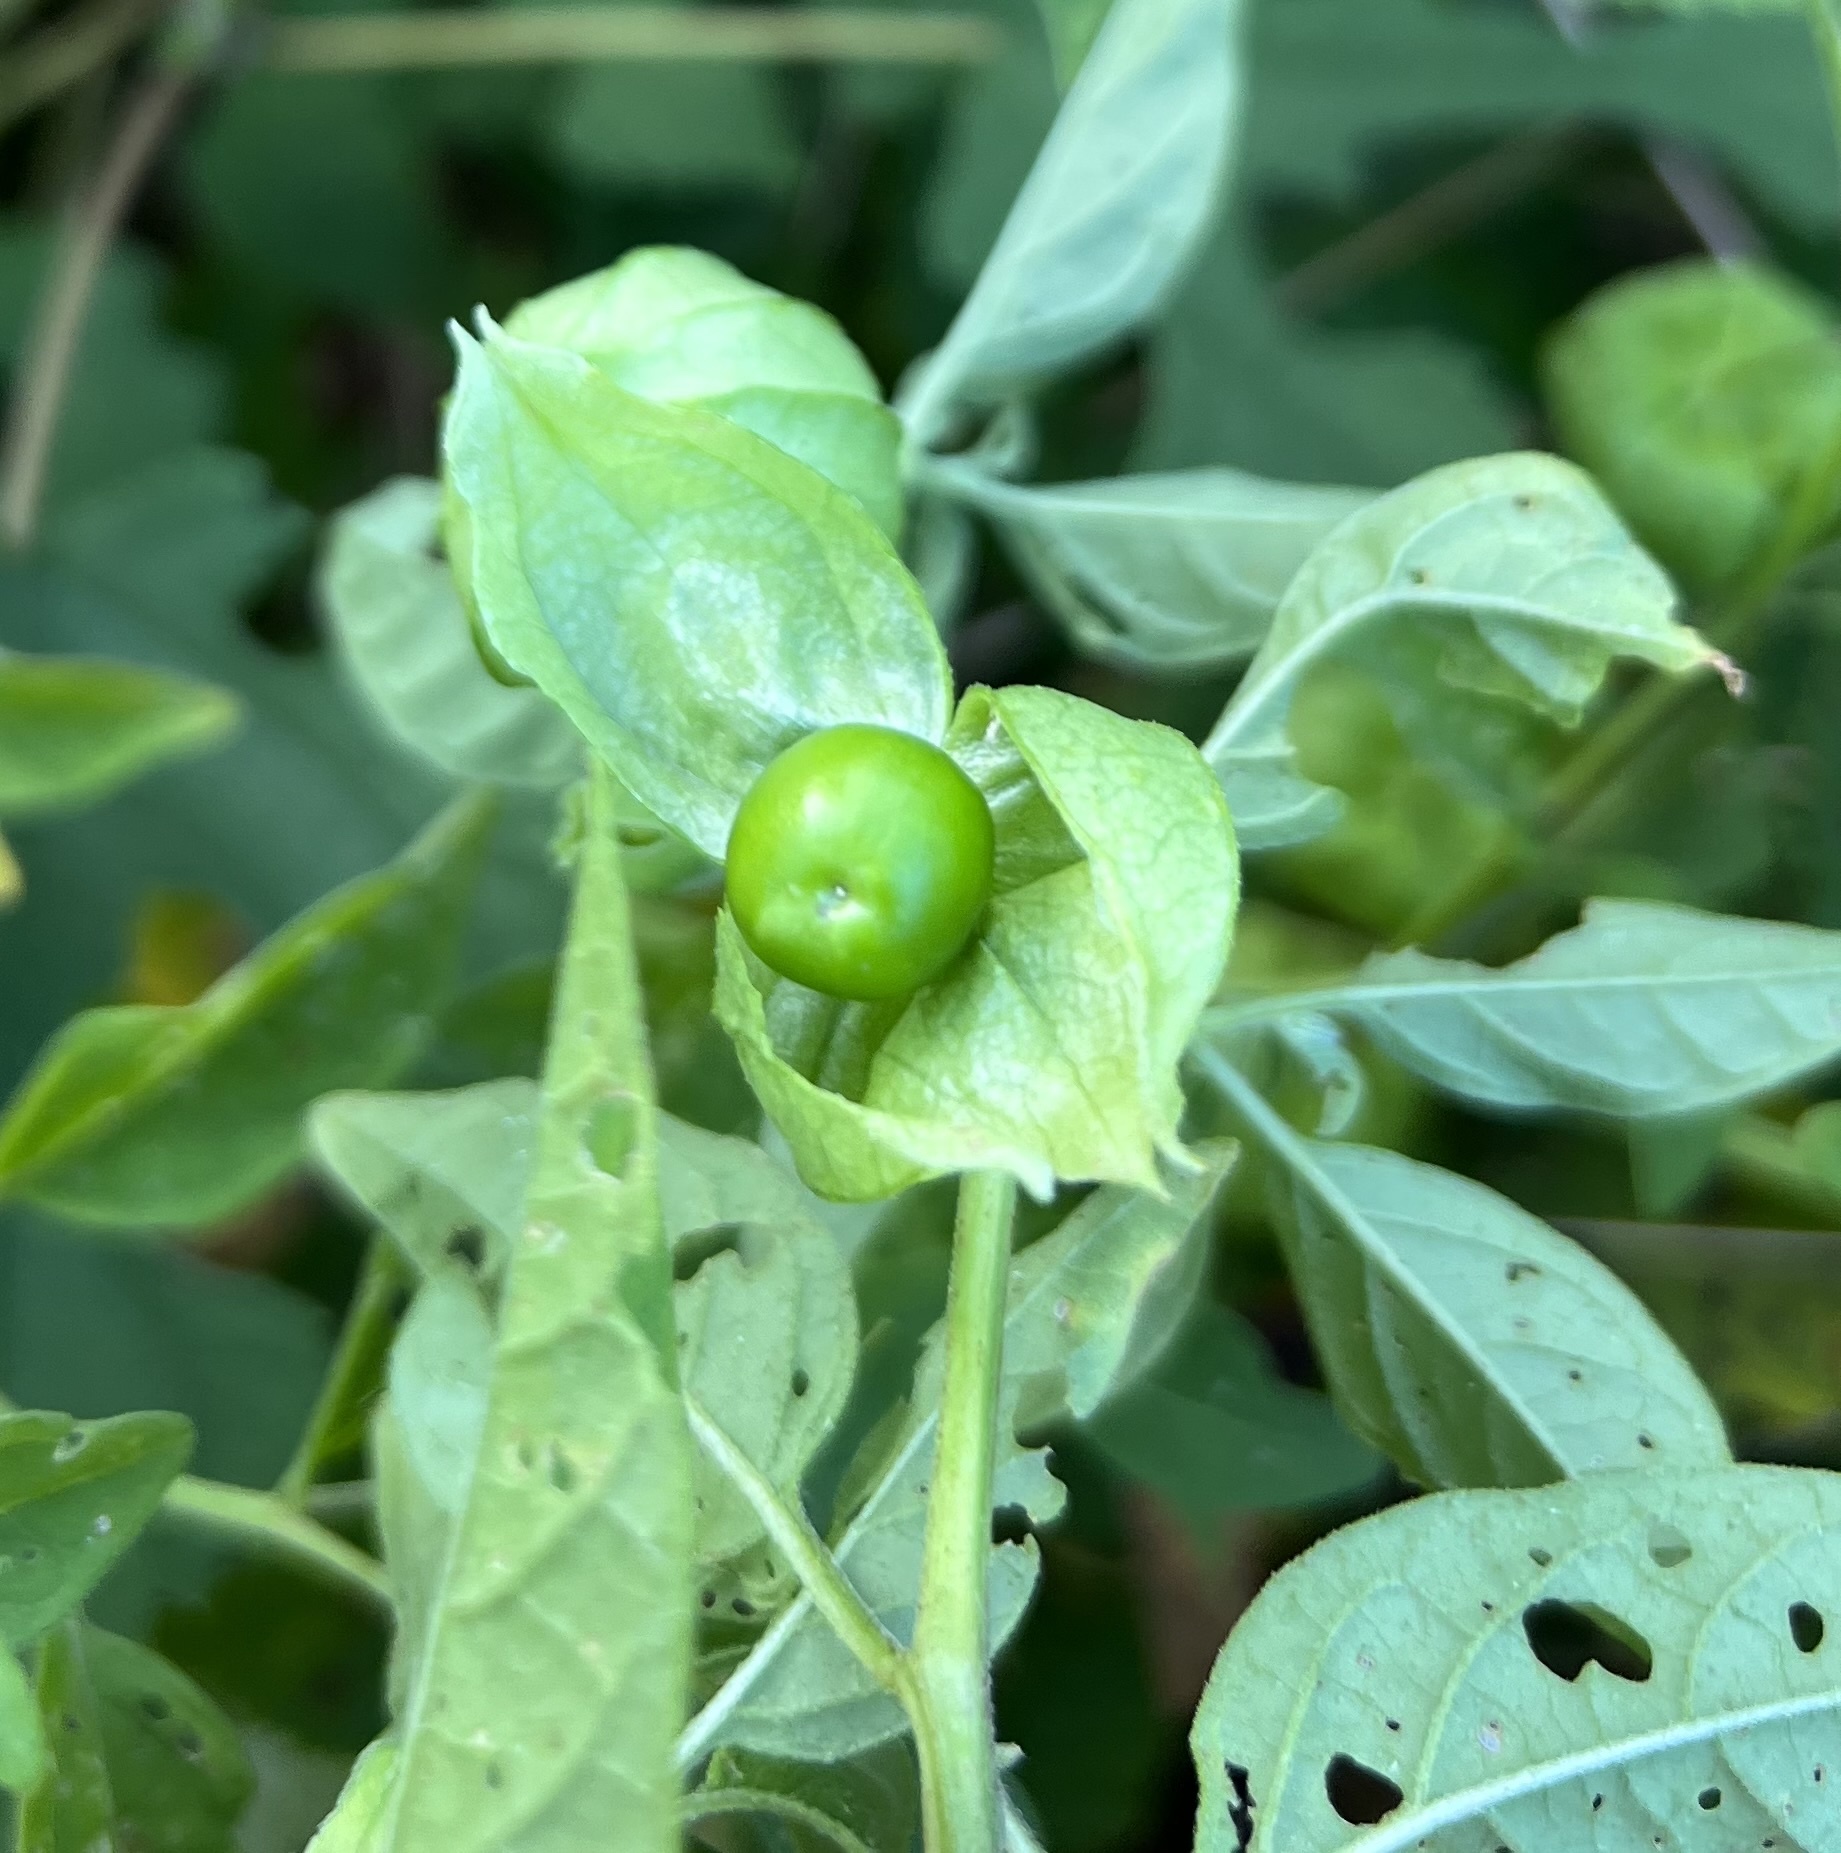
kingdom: Plantae
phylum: Tracheophyta
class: Magnoliopsida
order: Solanales
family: Solanaceae
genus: Physalis
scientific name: Physalis longifolia
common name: Common ground-cherry
